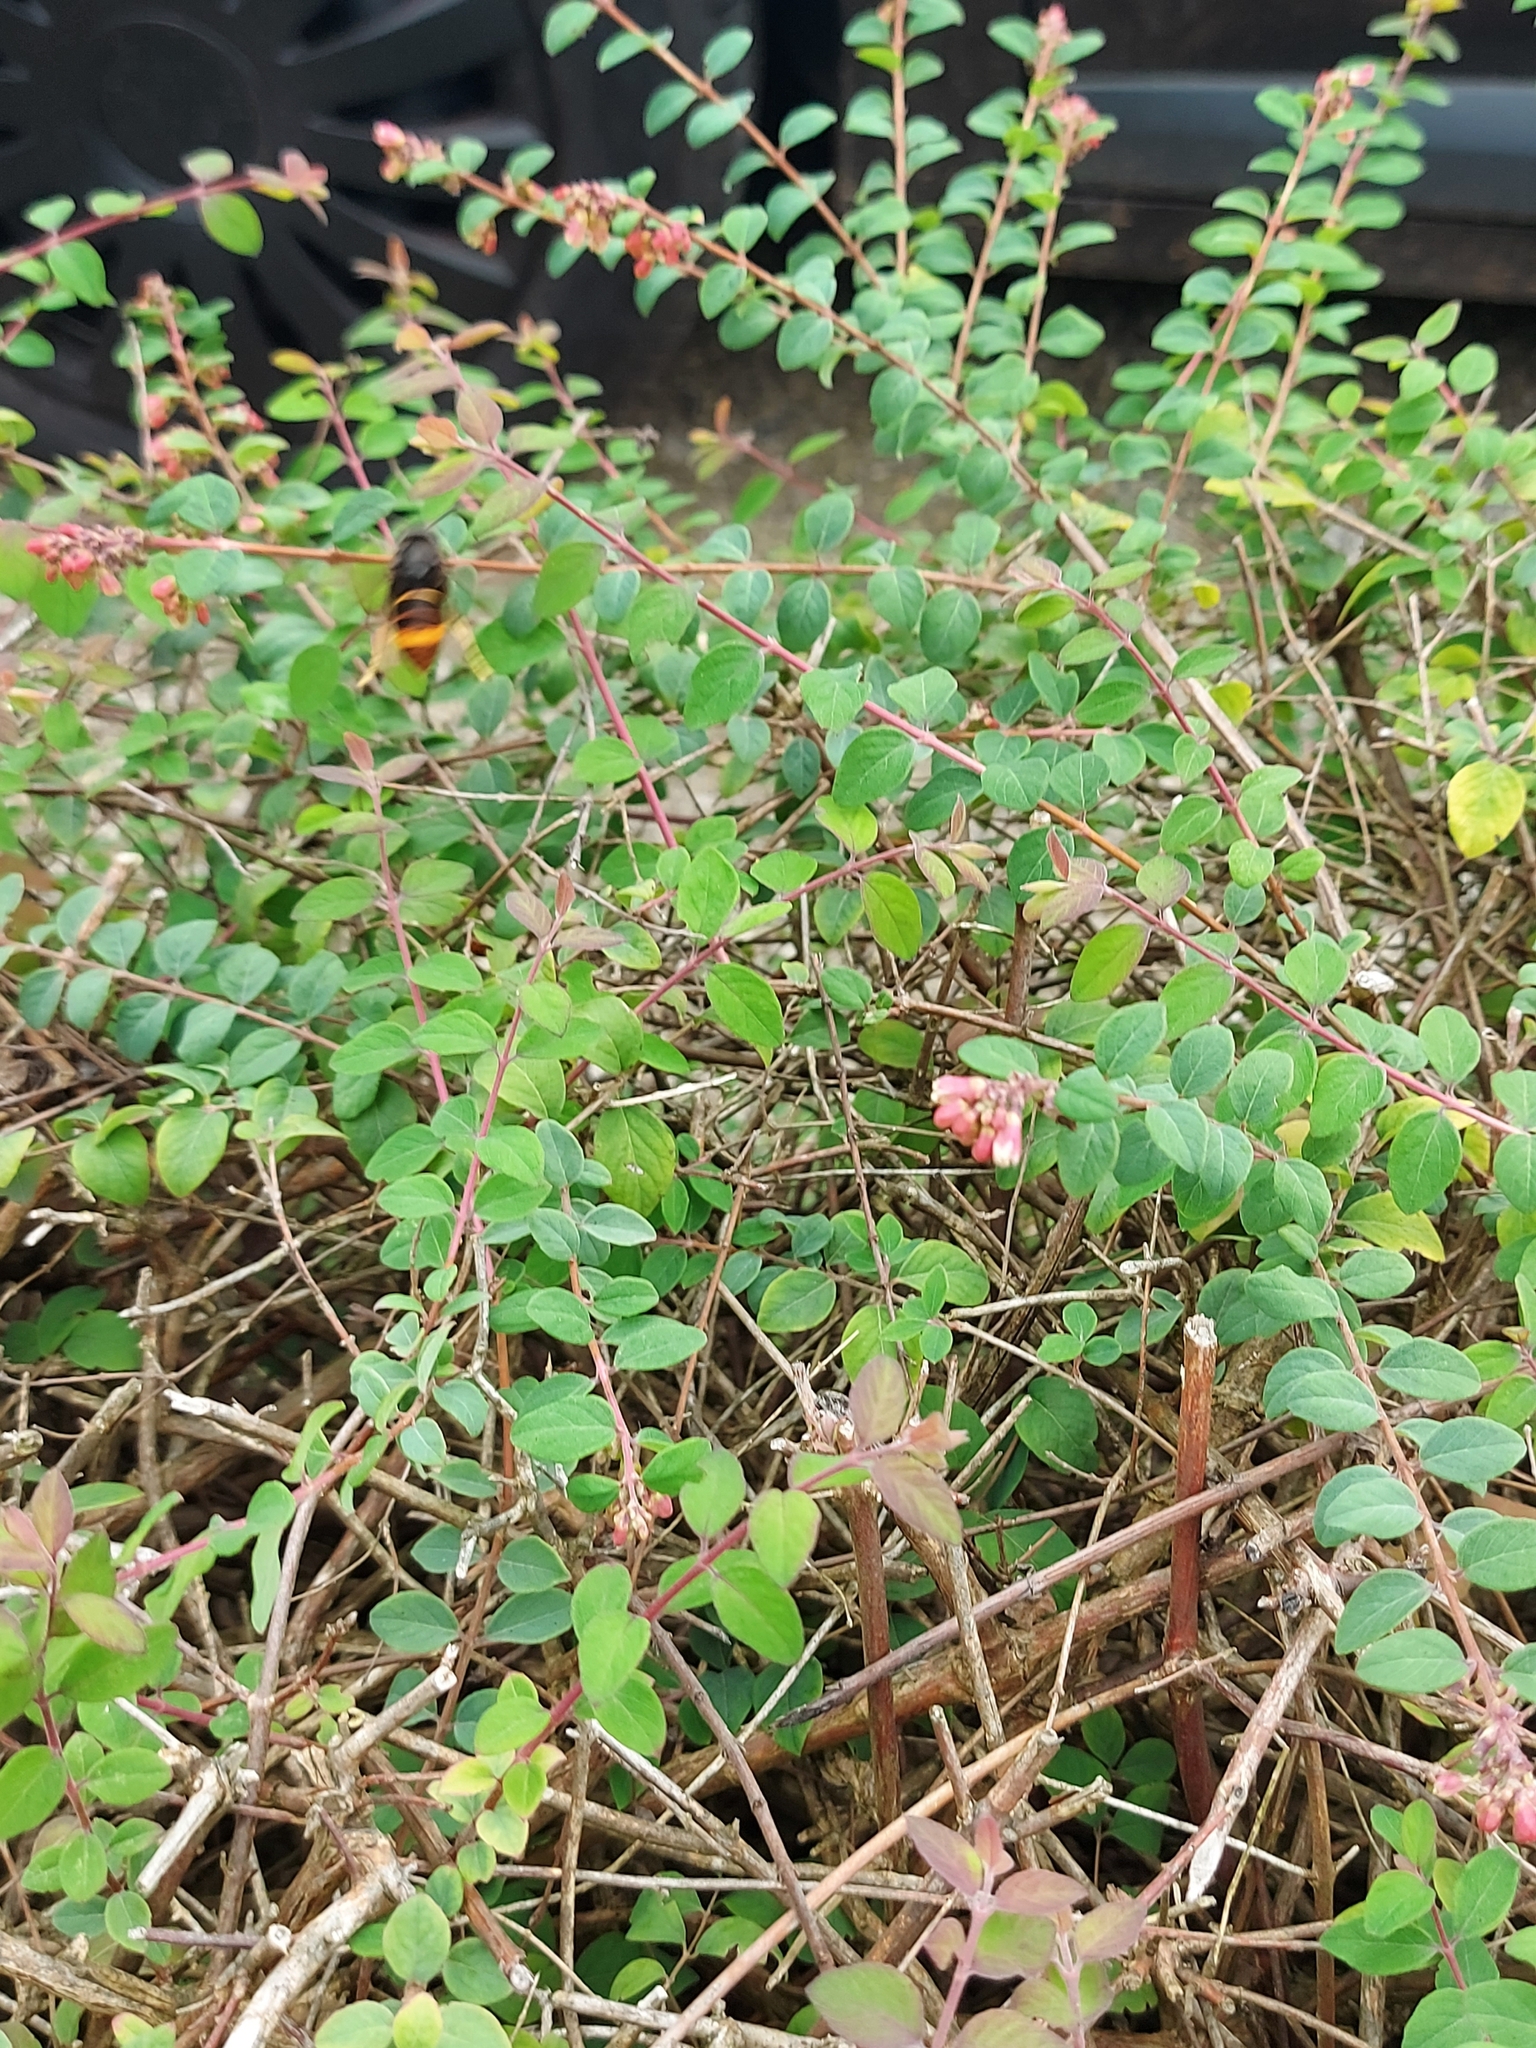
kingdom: Animalia
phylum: Arthropoda
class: Insecta
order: Hymenoptera
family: Vespidae
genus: Vespa
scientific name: Vespa velutina
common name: Asian hornet
